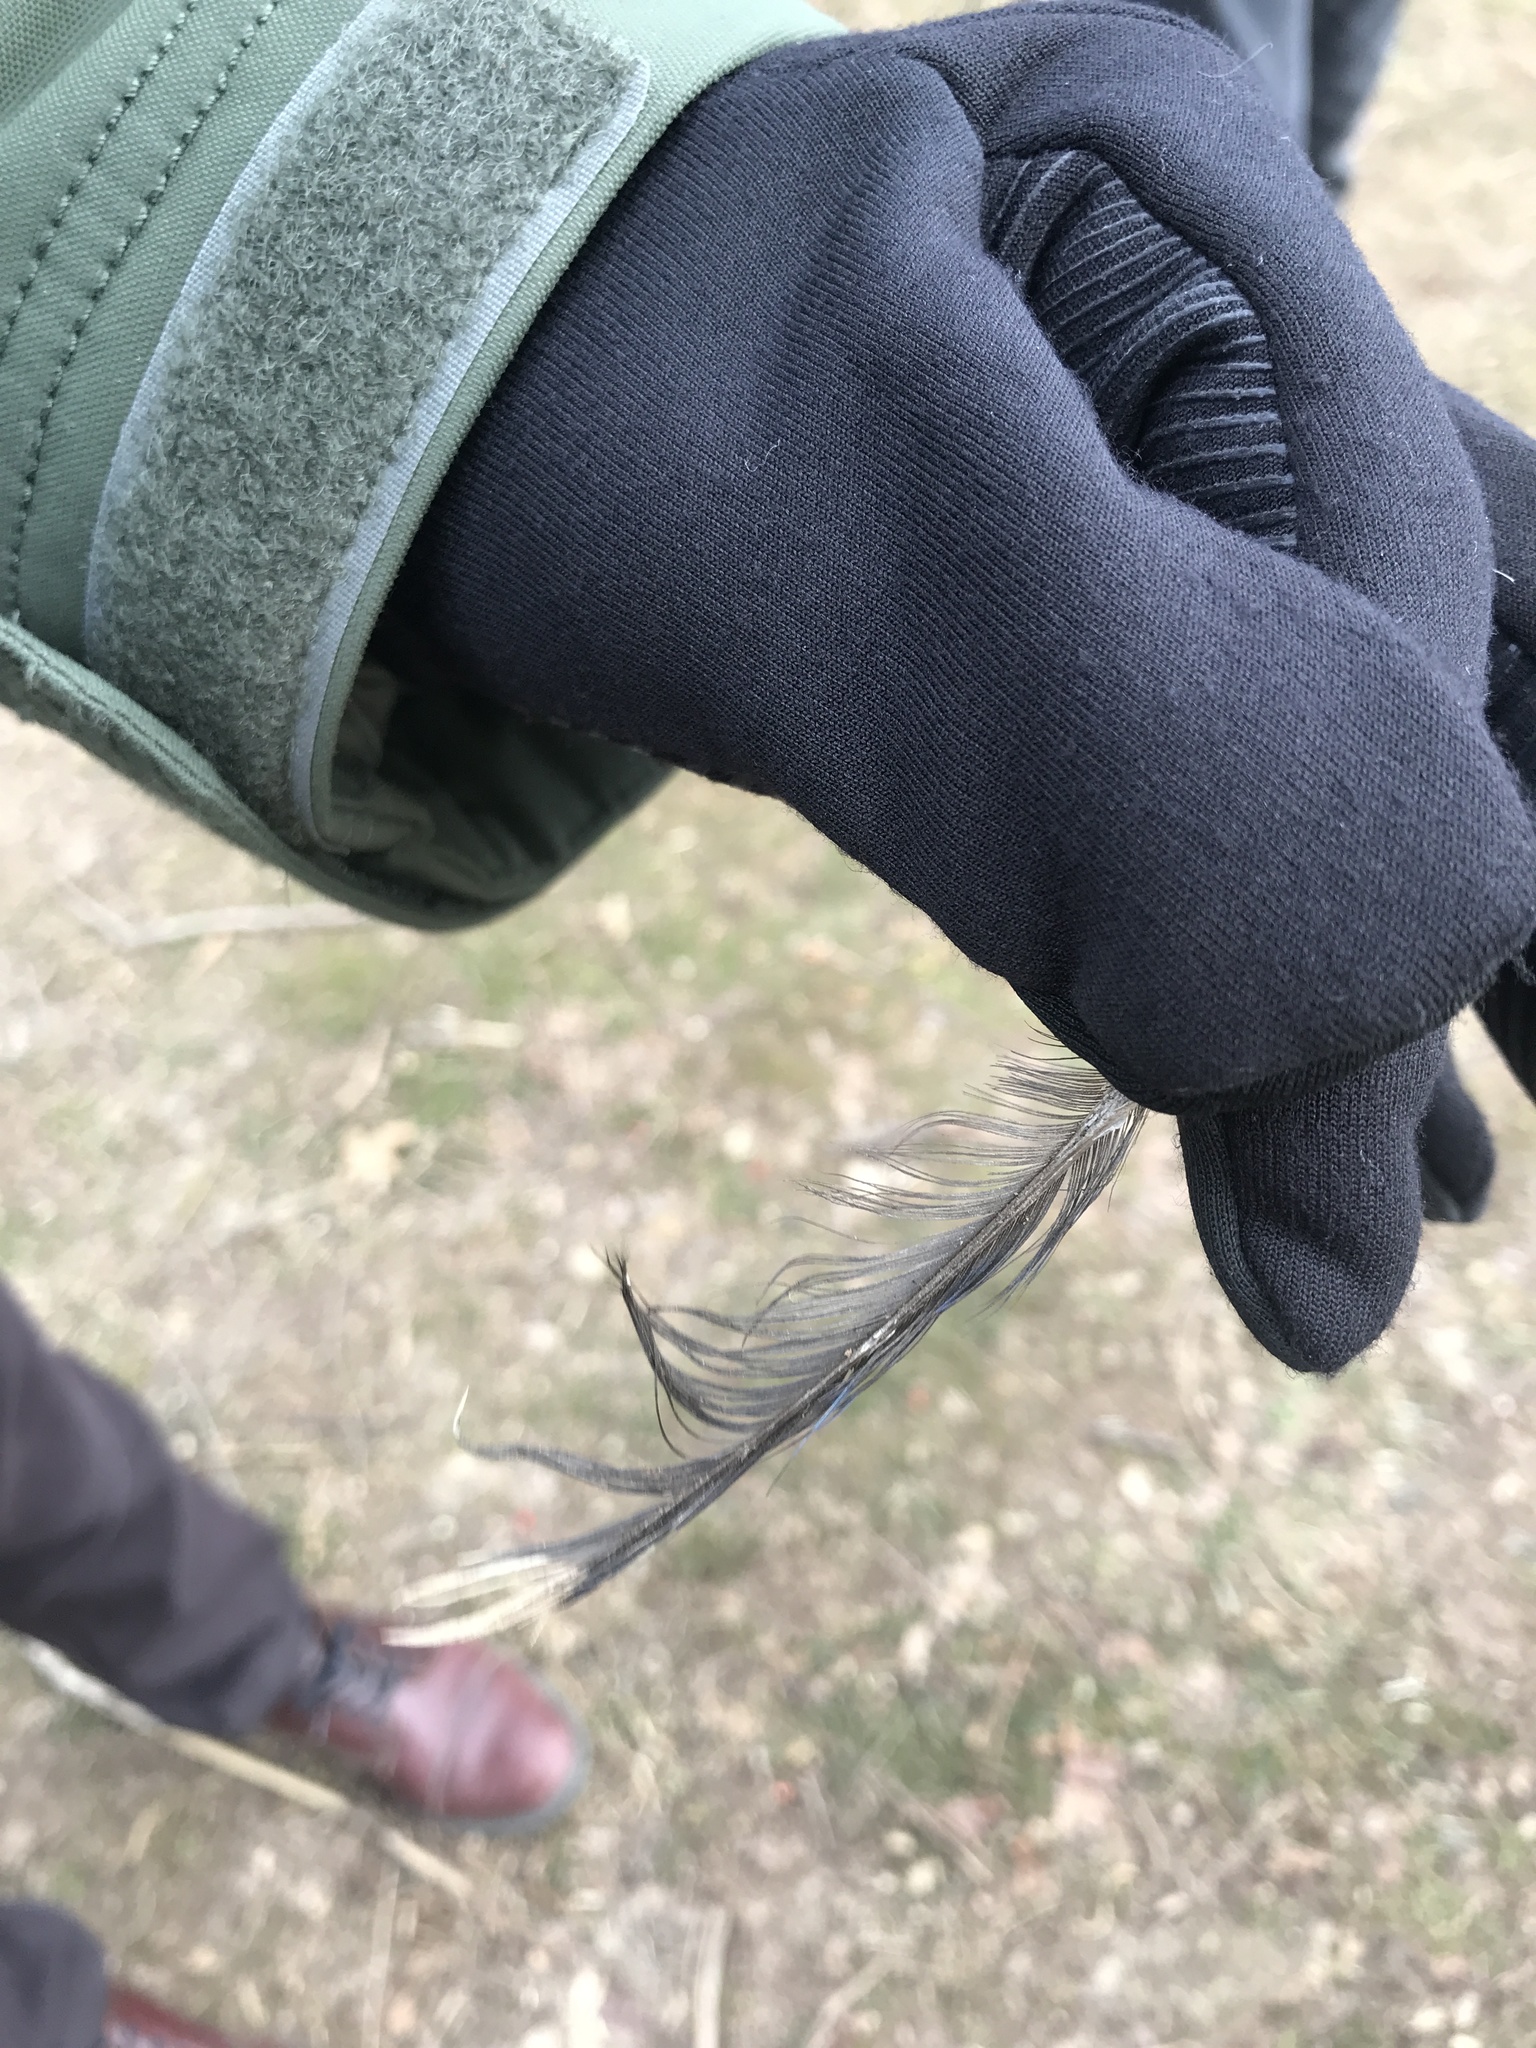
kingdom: Animalia
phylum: Chordata
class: Aves
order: Passeriformes
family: Corvidae
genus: Cyanocitta
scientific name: Cyanocitta cristata
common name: Blue jay
